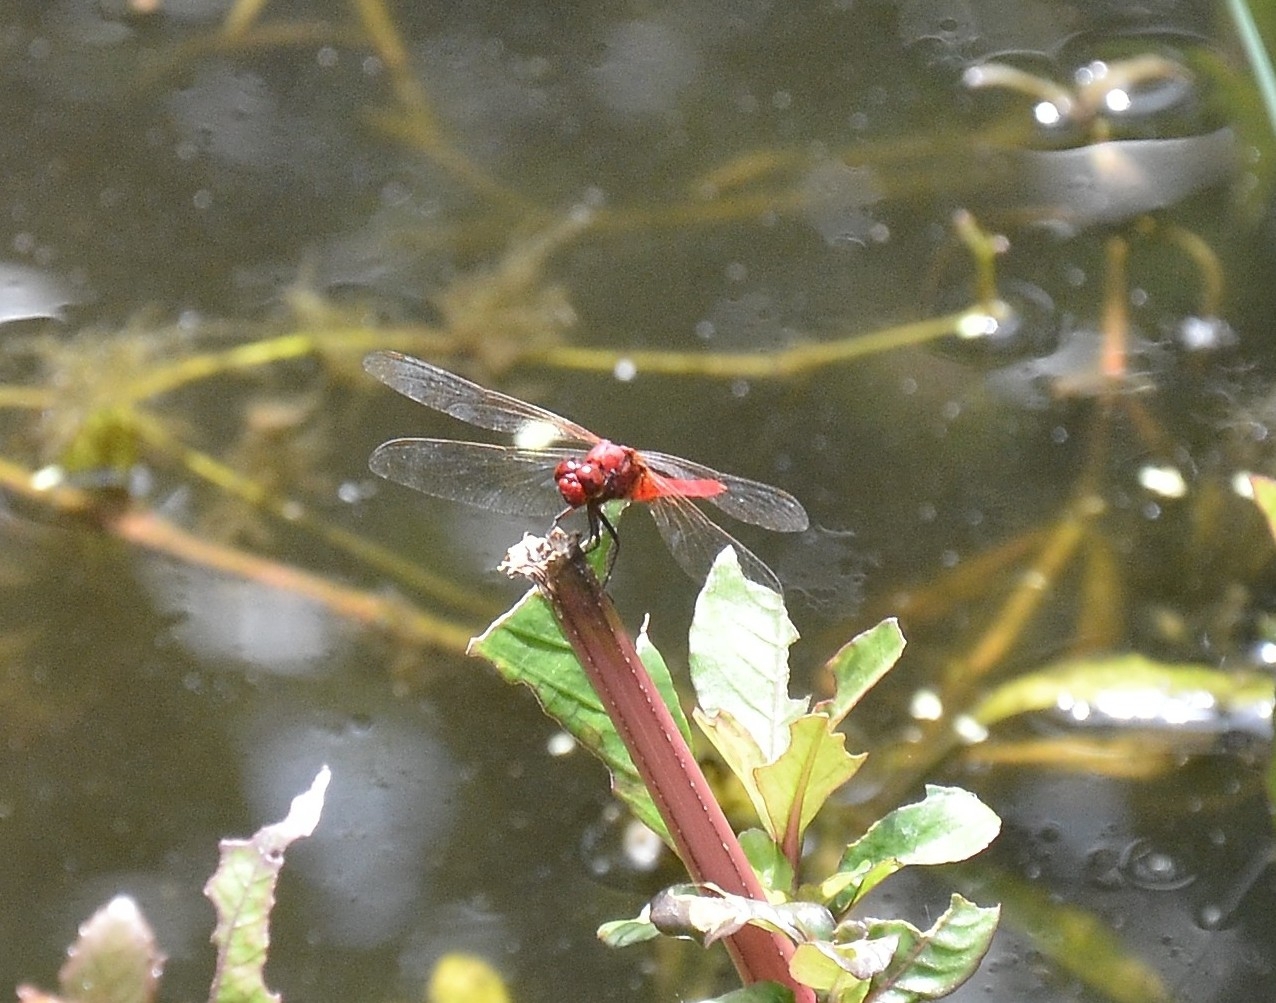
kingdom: Animalia
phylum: Arthropoda
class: Insecta
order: Odonata
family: Libellulidae
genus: Rhodothemis
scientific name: Rhodothemis rufa
